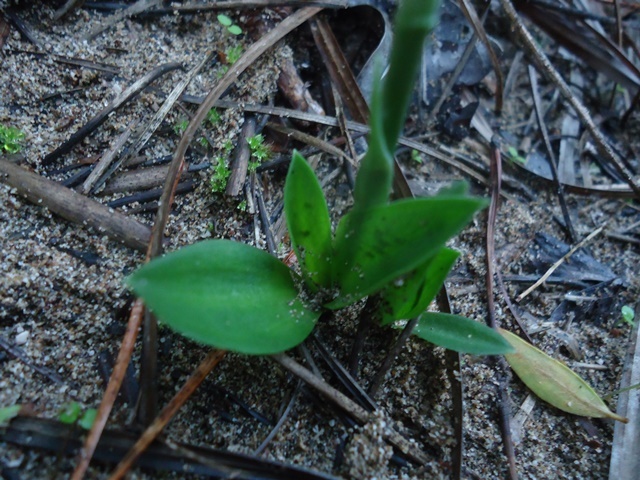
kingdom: Plantae
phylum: Tracheophyta
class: Liliopsida
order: Asparagales
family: Orchidaceae
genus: Spiranthes
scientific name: Spiranthes spiralis
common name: Autumn lady's-tresses
